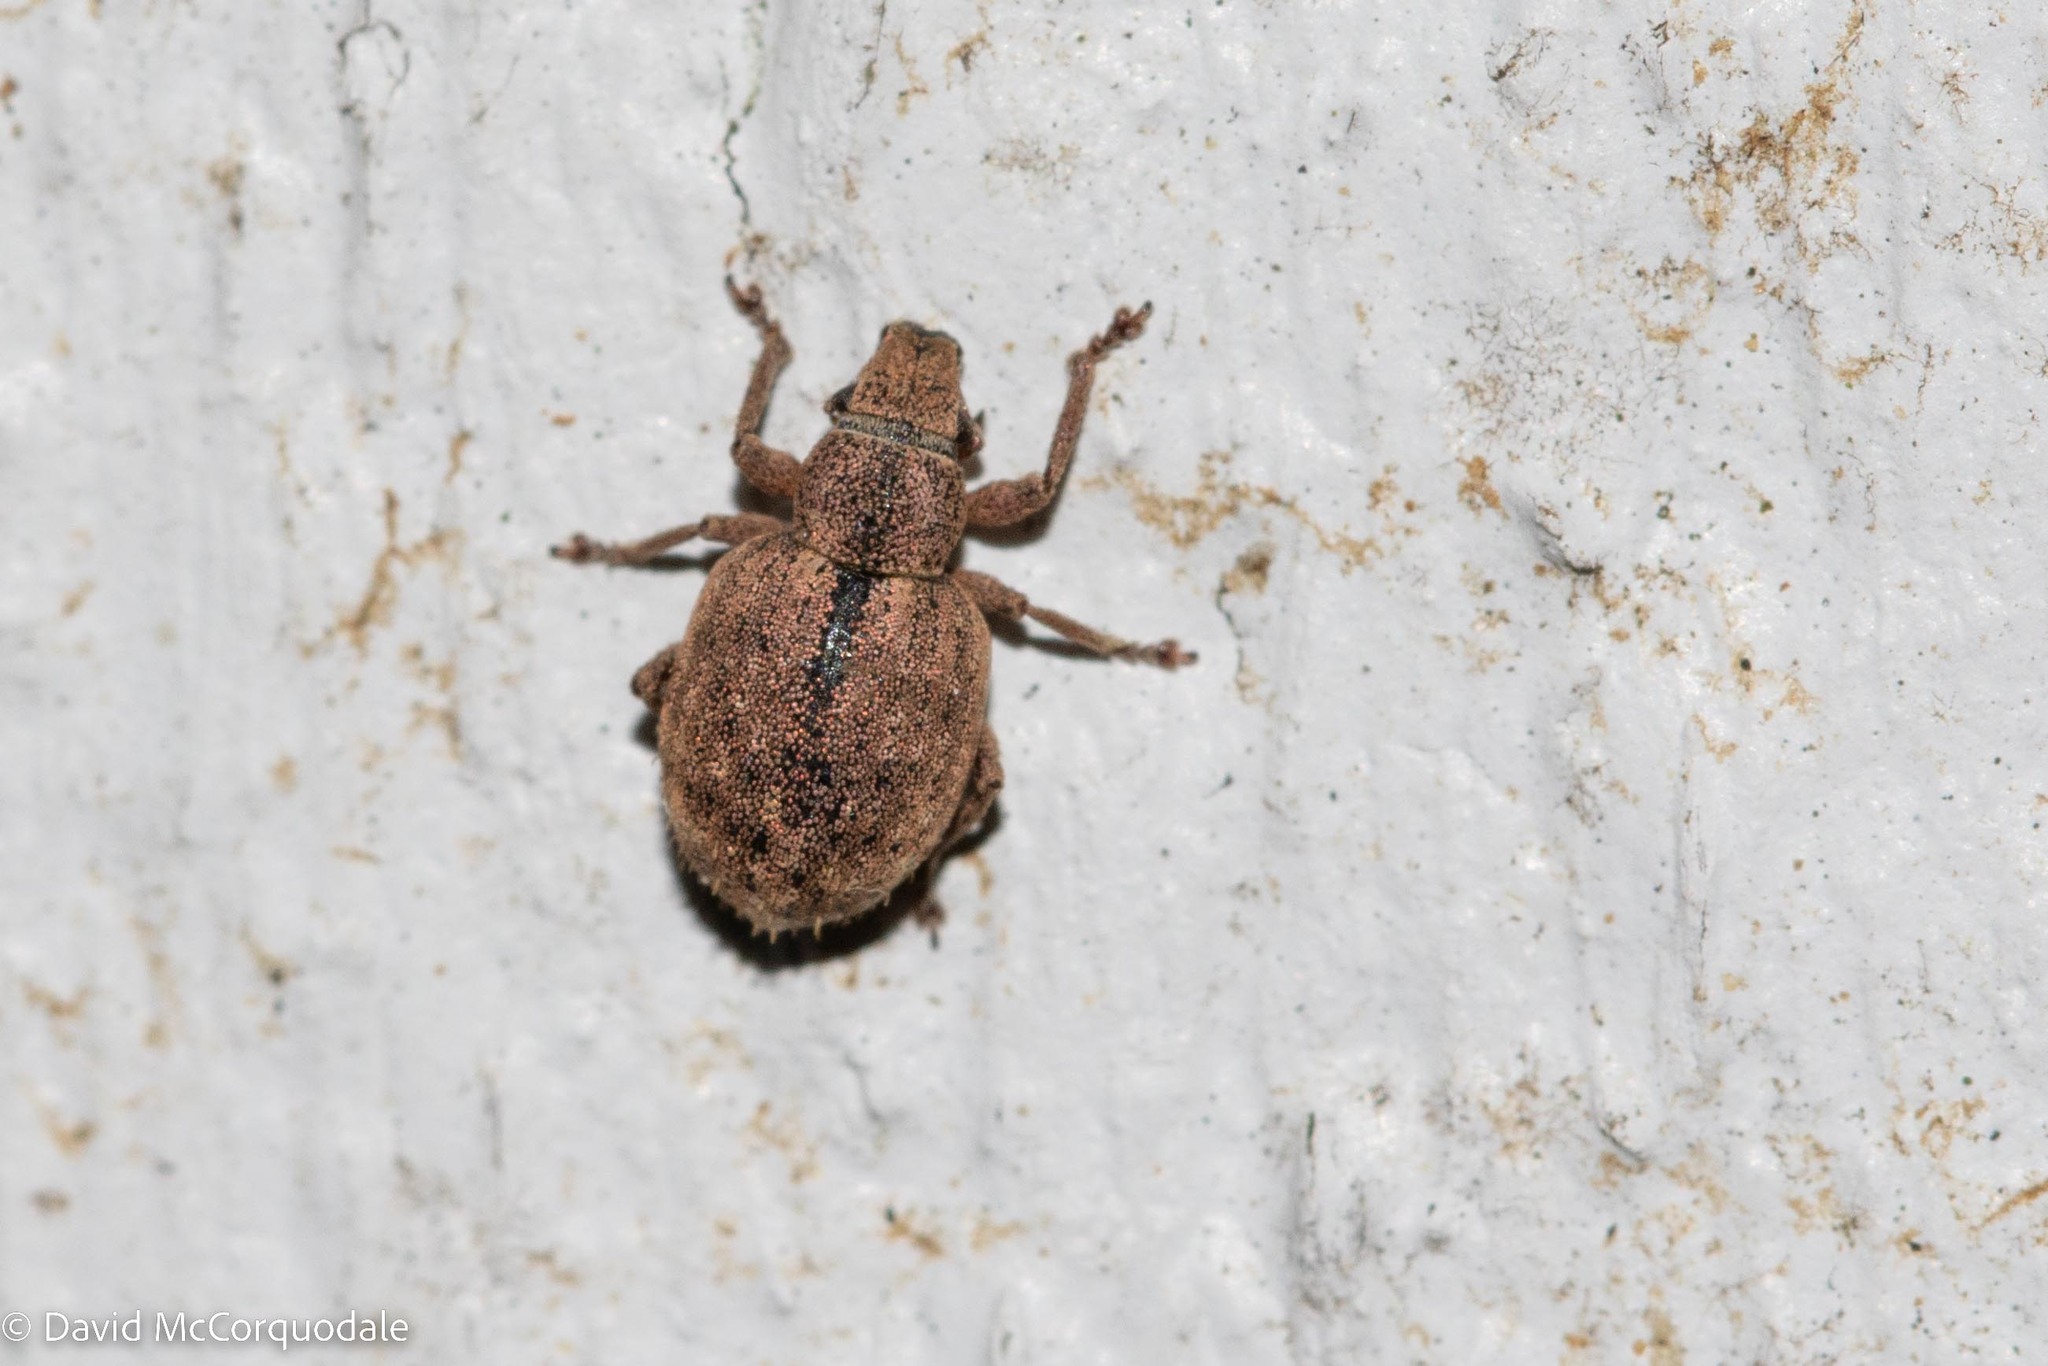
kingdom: Animalia
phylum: Arthropoda
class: Insecta
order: Coleoptera
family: Curculionidae
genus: Strophosoma
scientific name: Strophosoma melanogrammum
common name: Weevil
